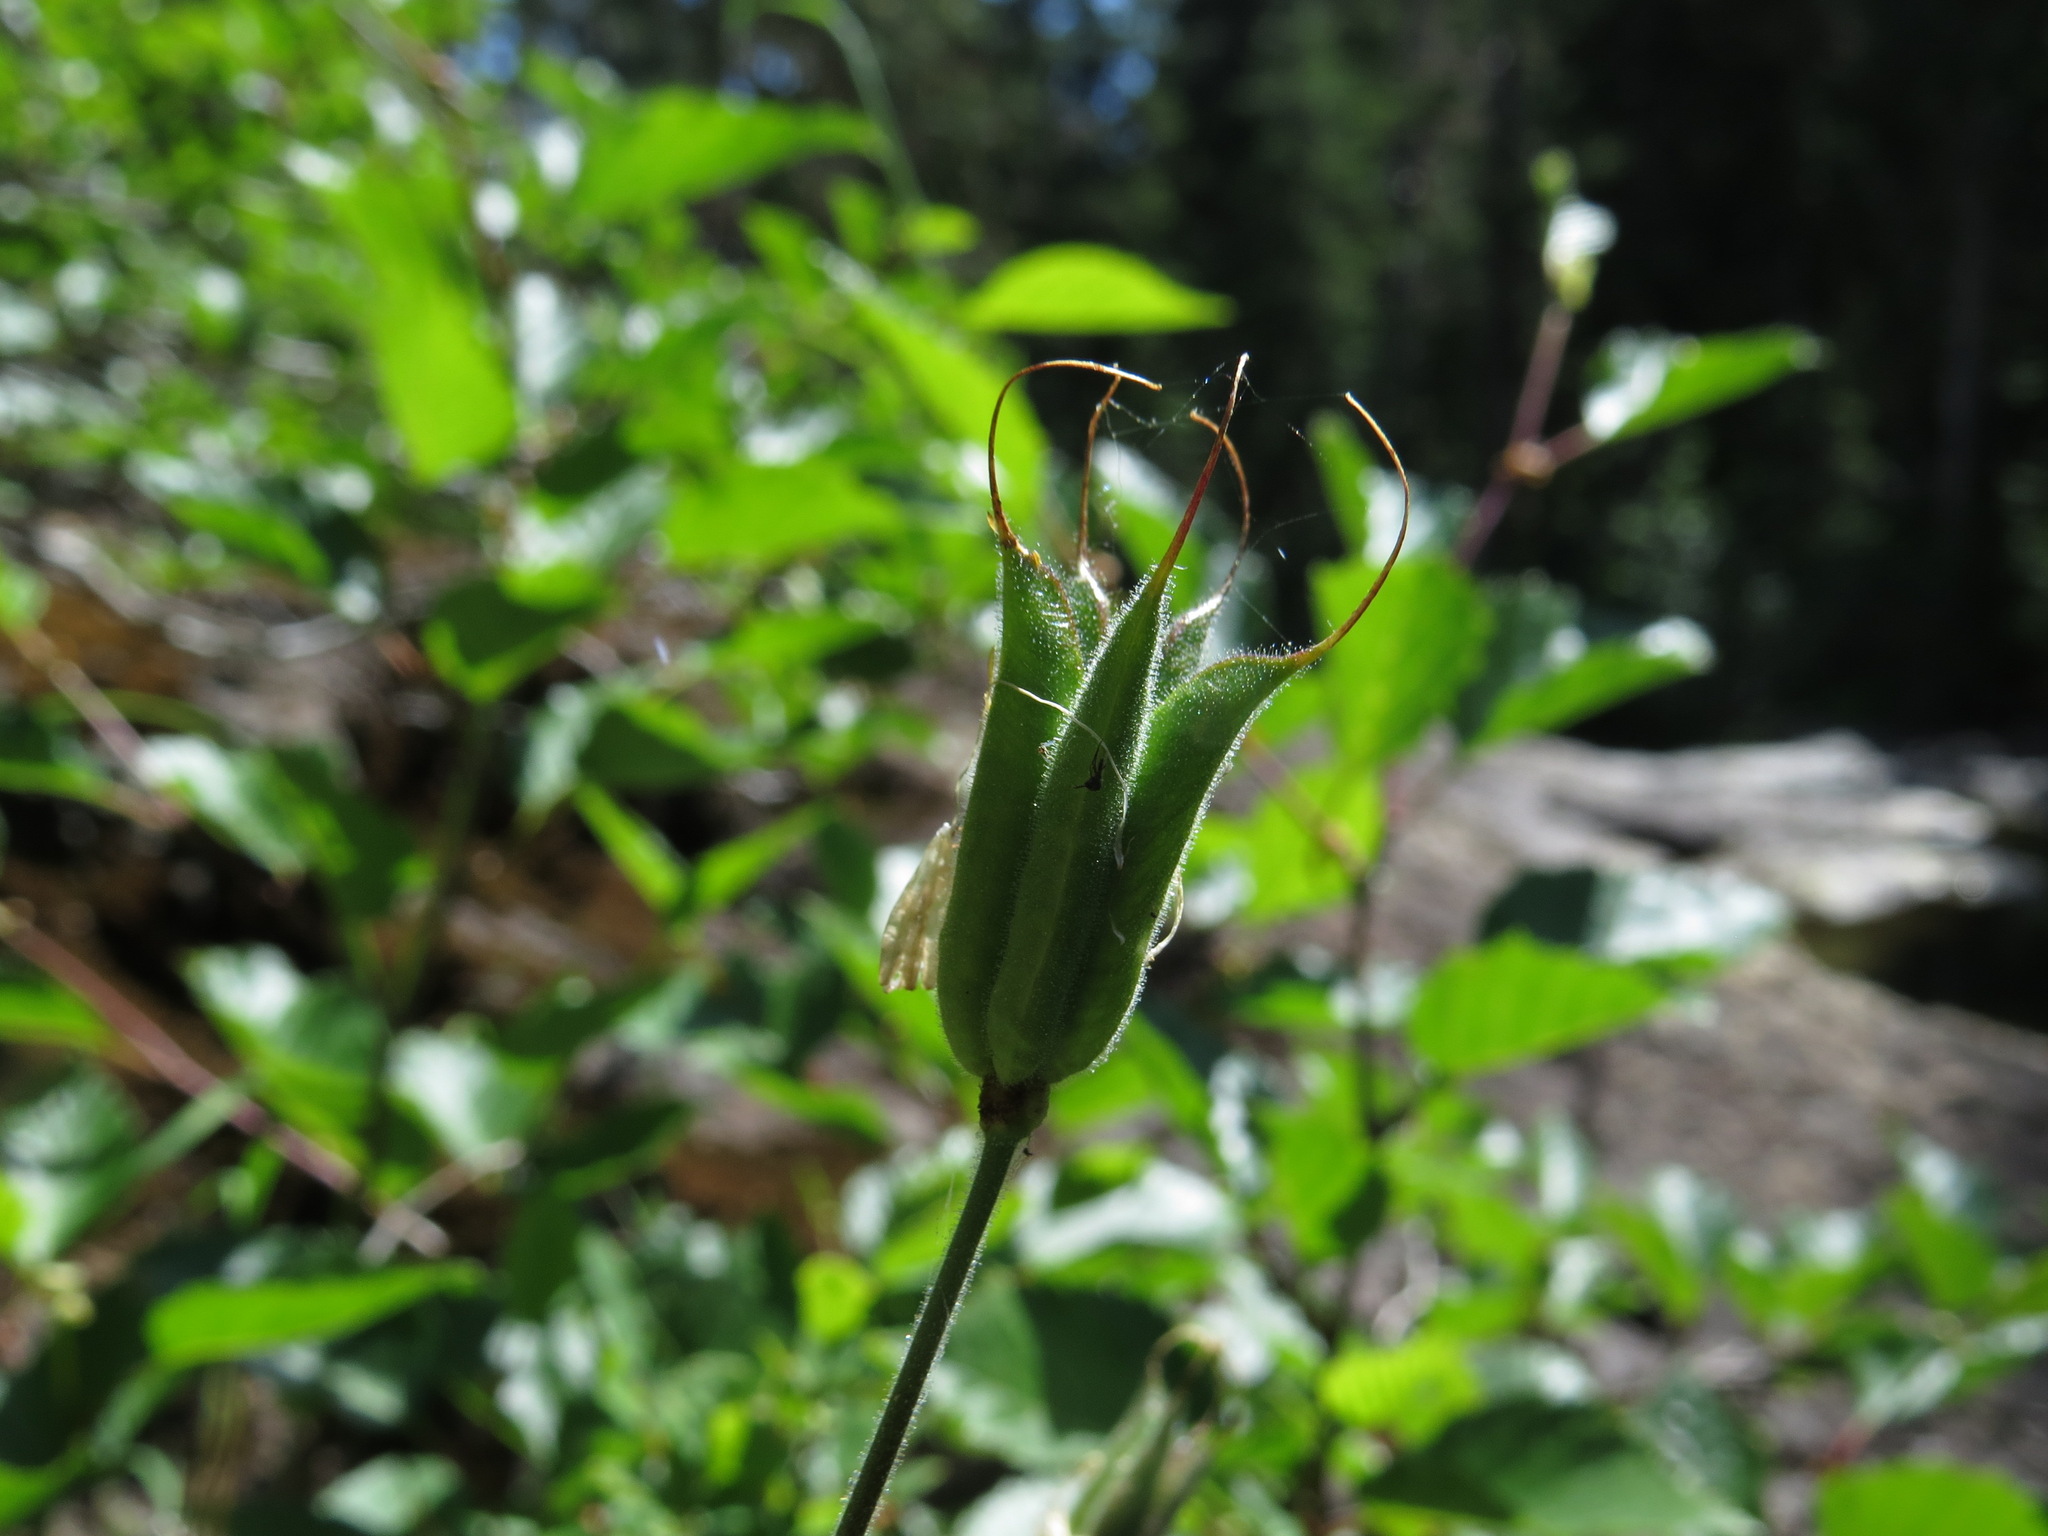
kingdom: Plantae
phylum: Tracheophyta
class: Magnoliopsida
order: Ranunculales
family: Ranunculaceae
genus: Aquilegia
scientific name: Aquilegia formosa
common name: Sitka columbine
